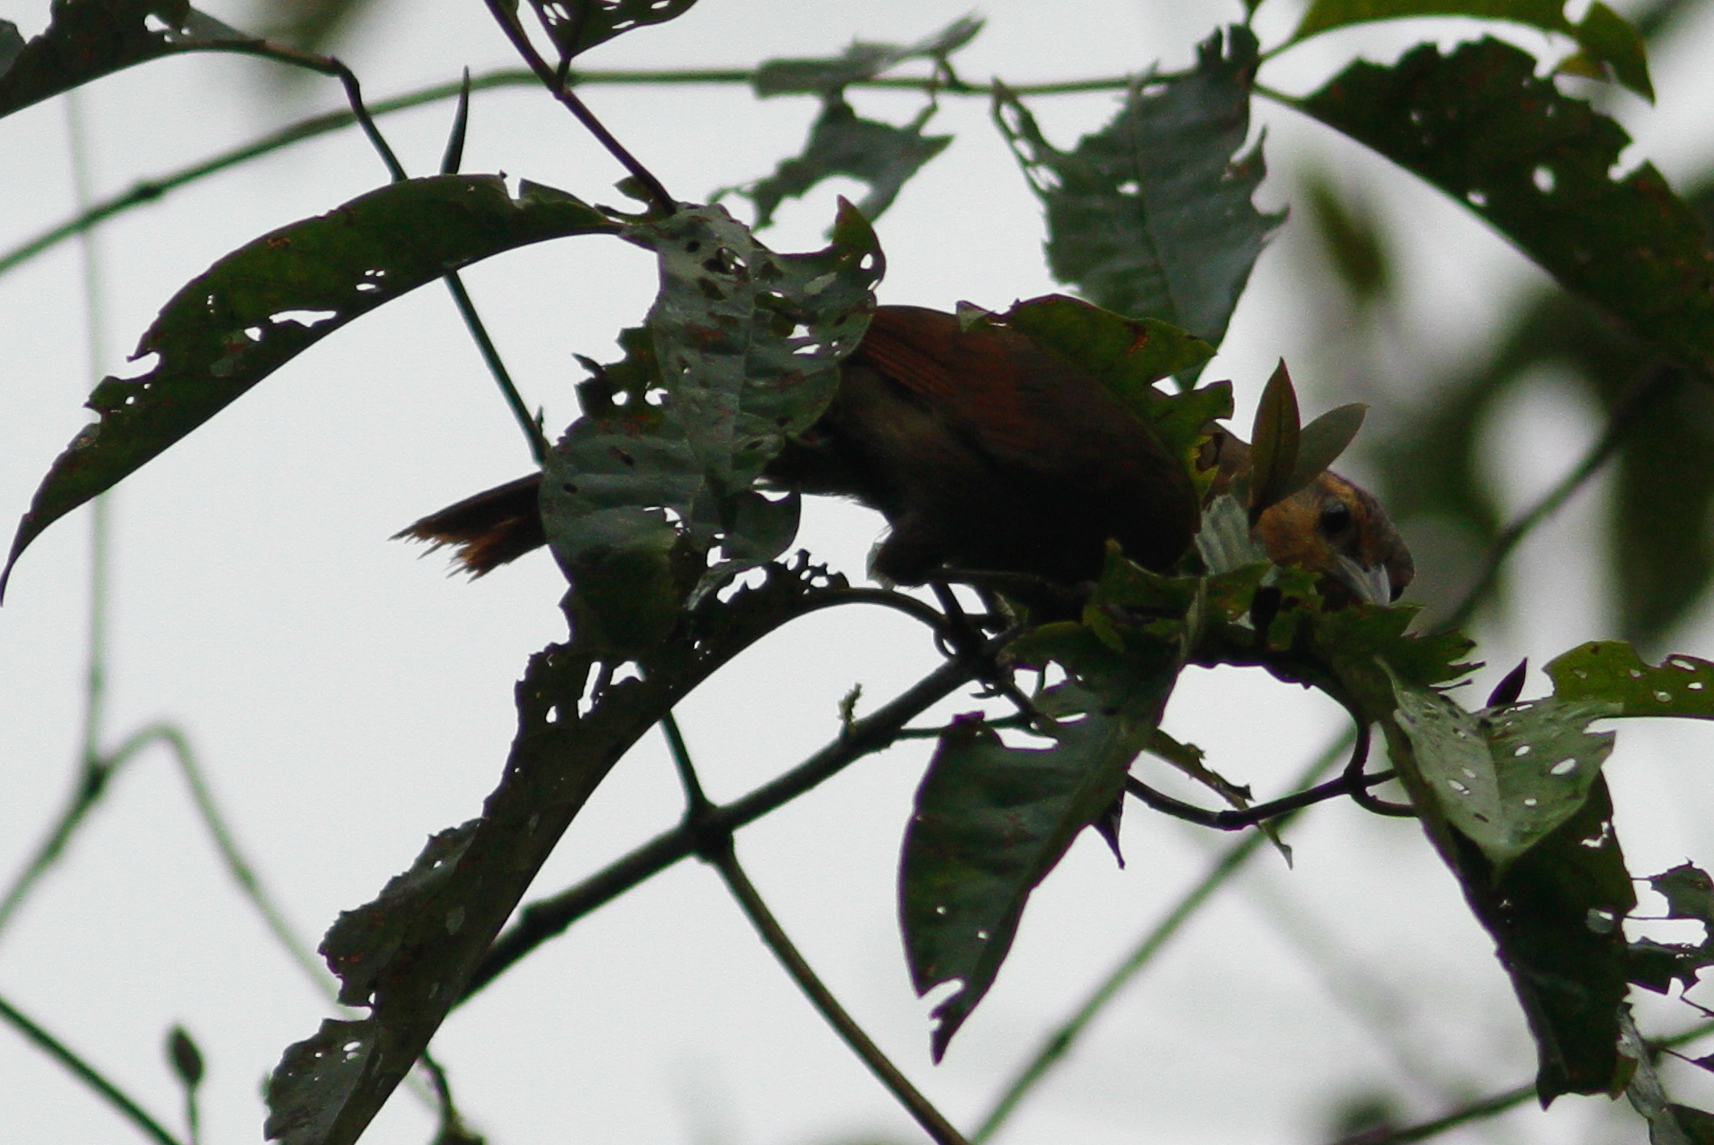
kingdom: Animalia
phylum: Chordata
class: Aves
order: Passeriformes
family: Furnariidae
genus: Philydor
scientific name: Philydor rufum
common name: Buff-fronted foliage-gleaner
